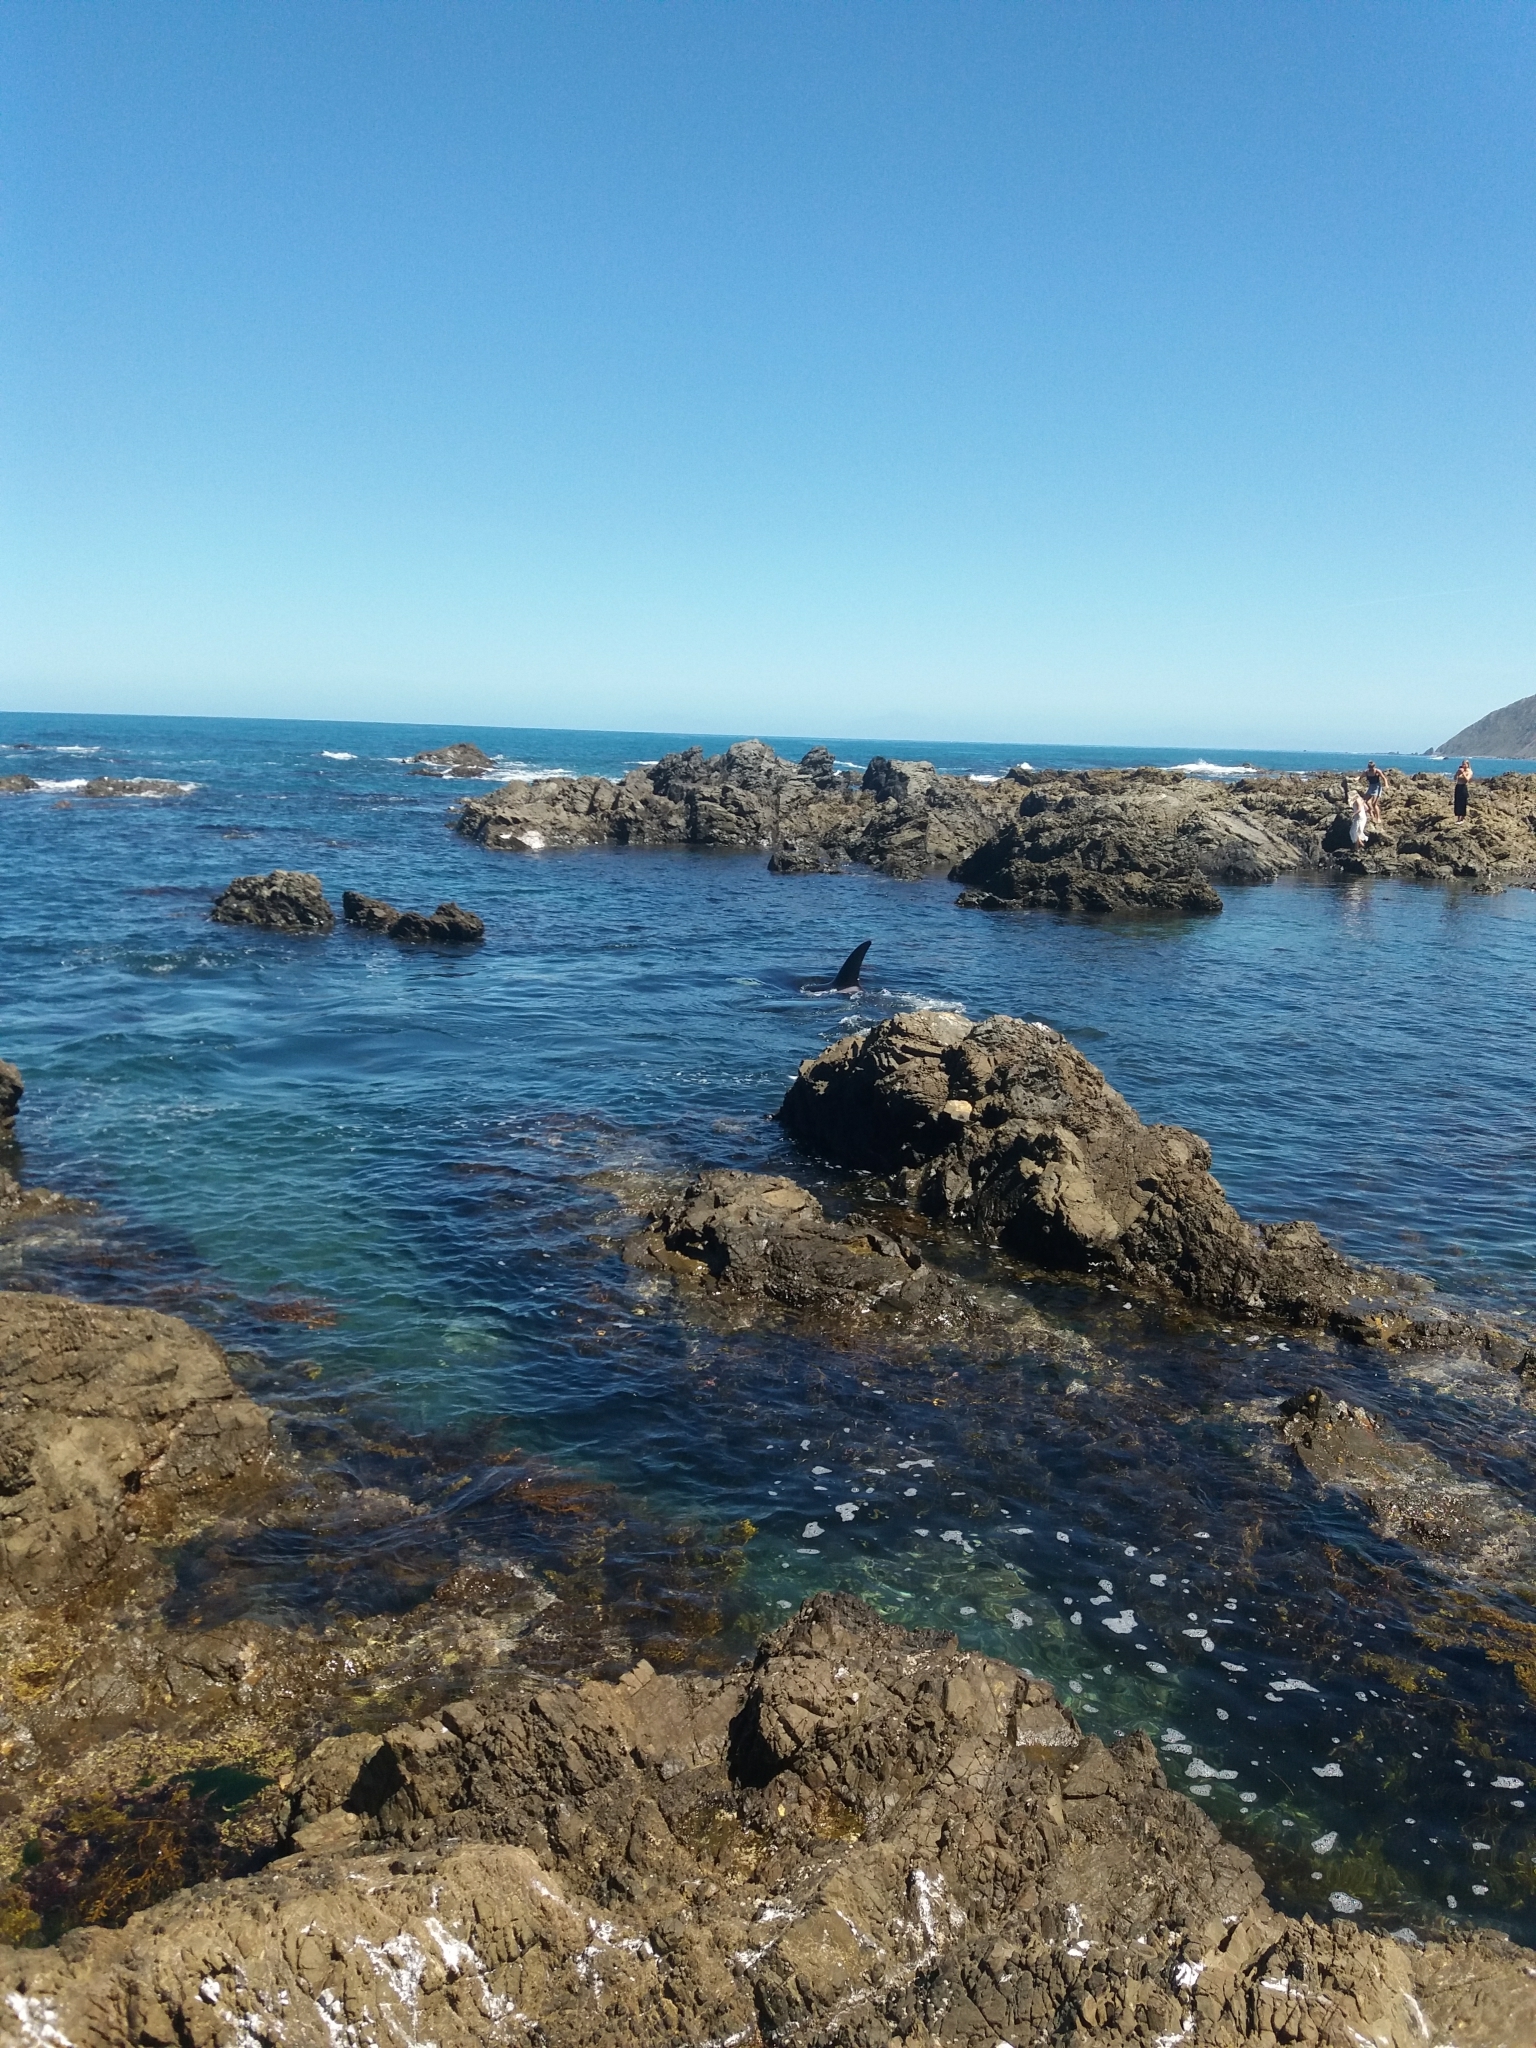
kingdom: Animalia
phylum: Chordata
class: Mammalia
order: Cetacea
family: Delphinidae
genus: Orcinus
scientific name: Orcinus orca
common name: Killer whale
